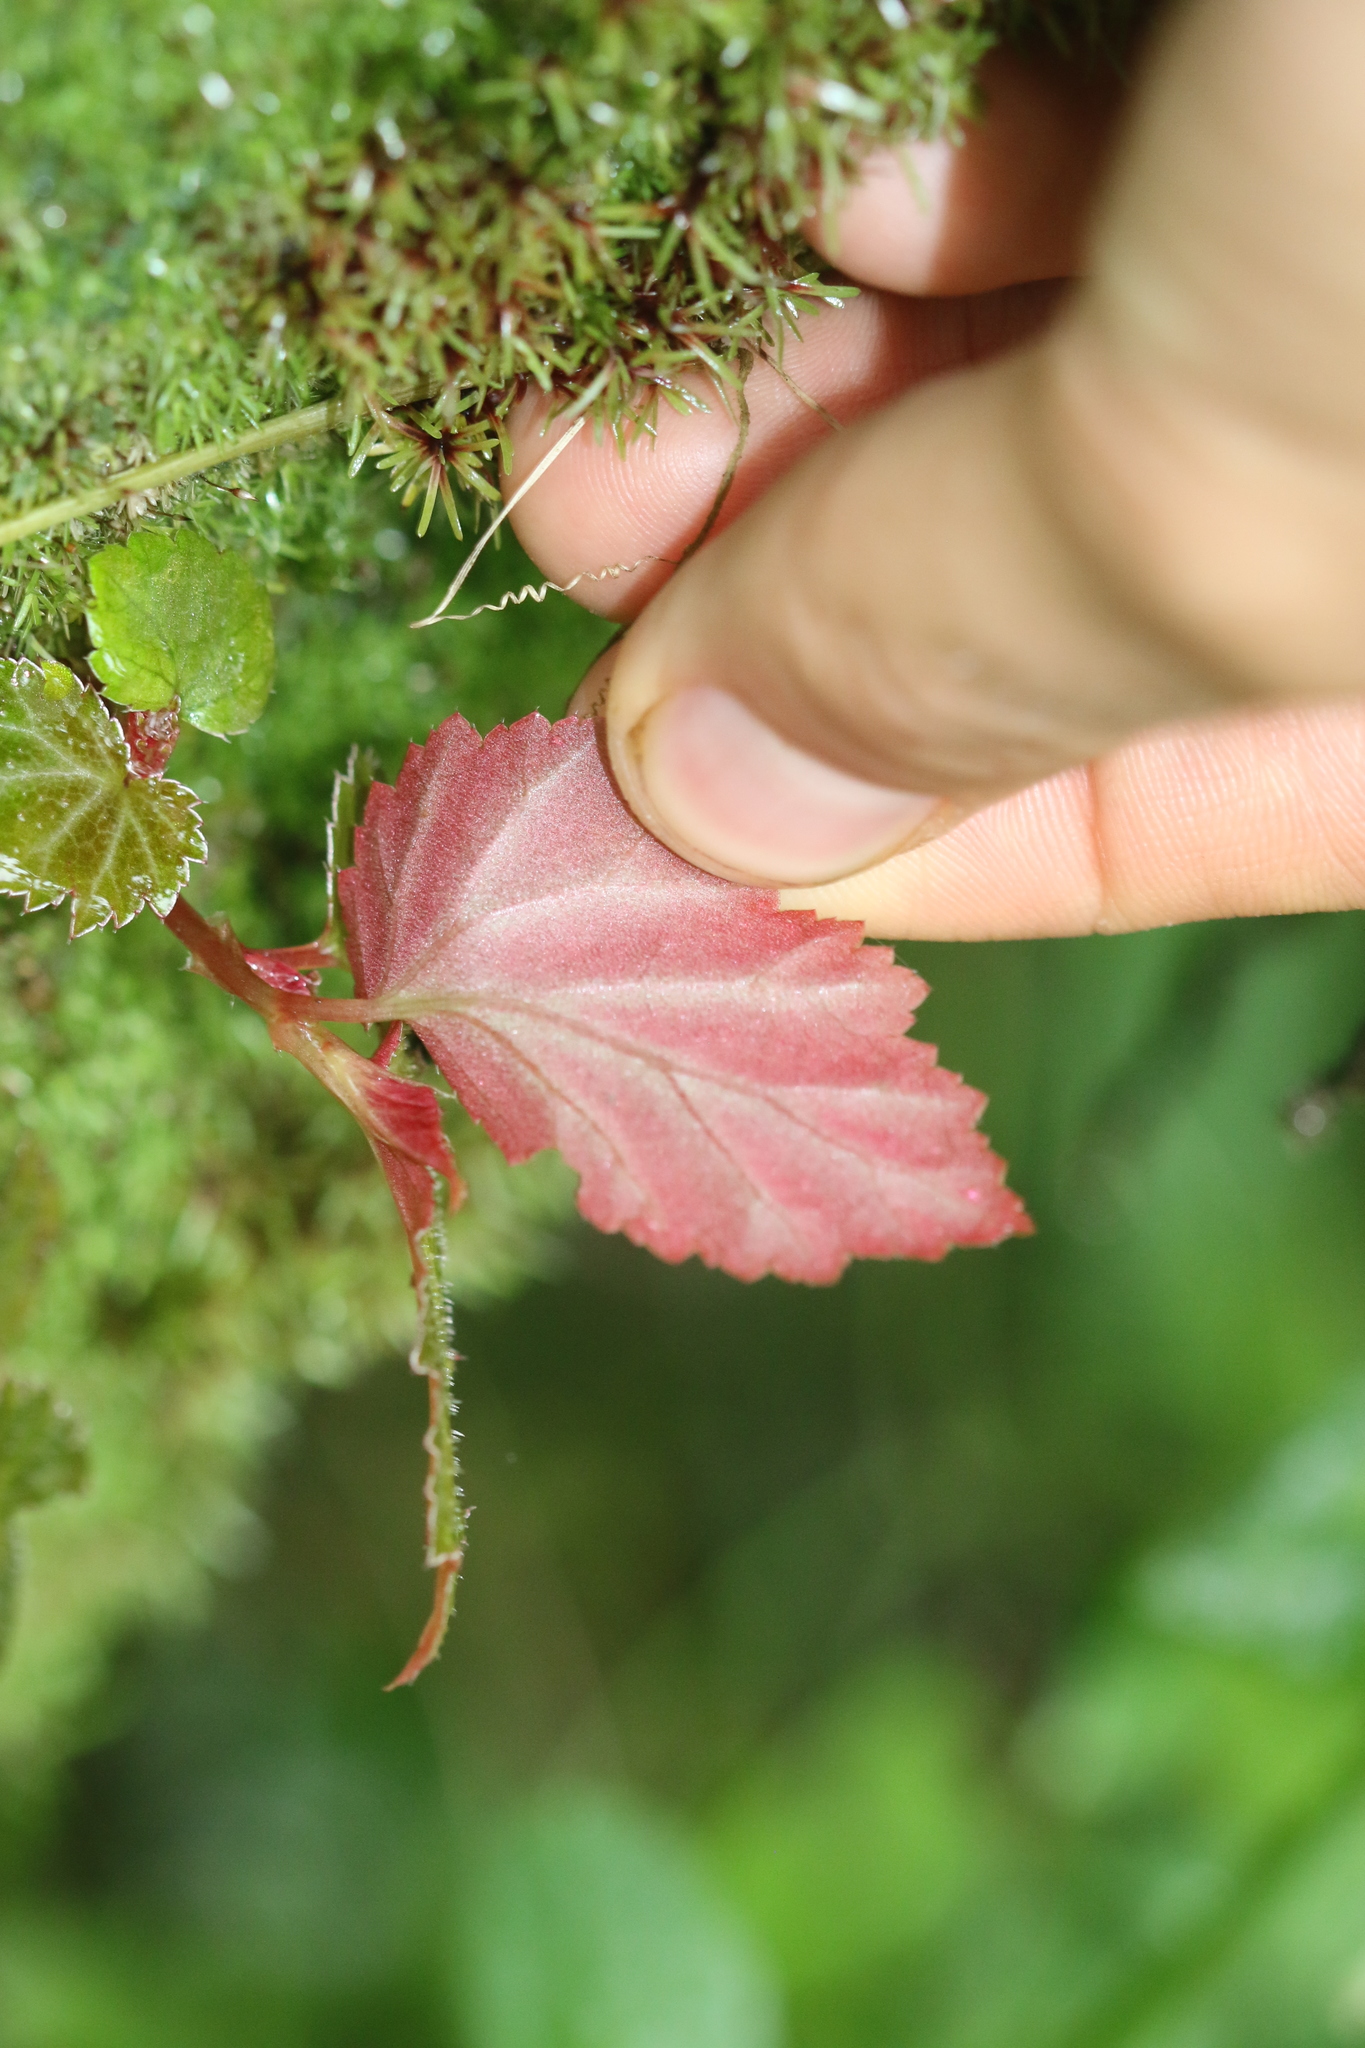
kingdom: Plantae
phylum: Tracheophyta
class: Magnoliopsida
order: Cucurbitales
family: Begoniaceae
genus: Begonia
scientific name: Begonia semiovata
